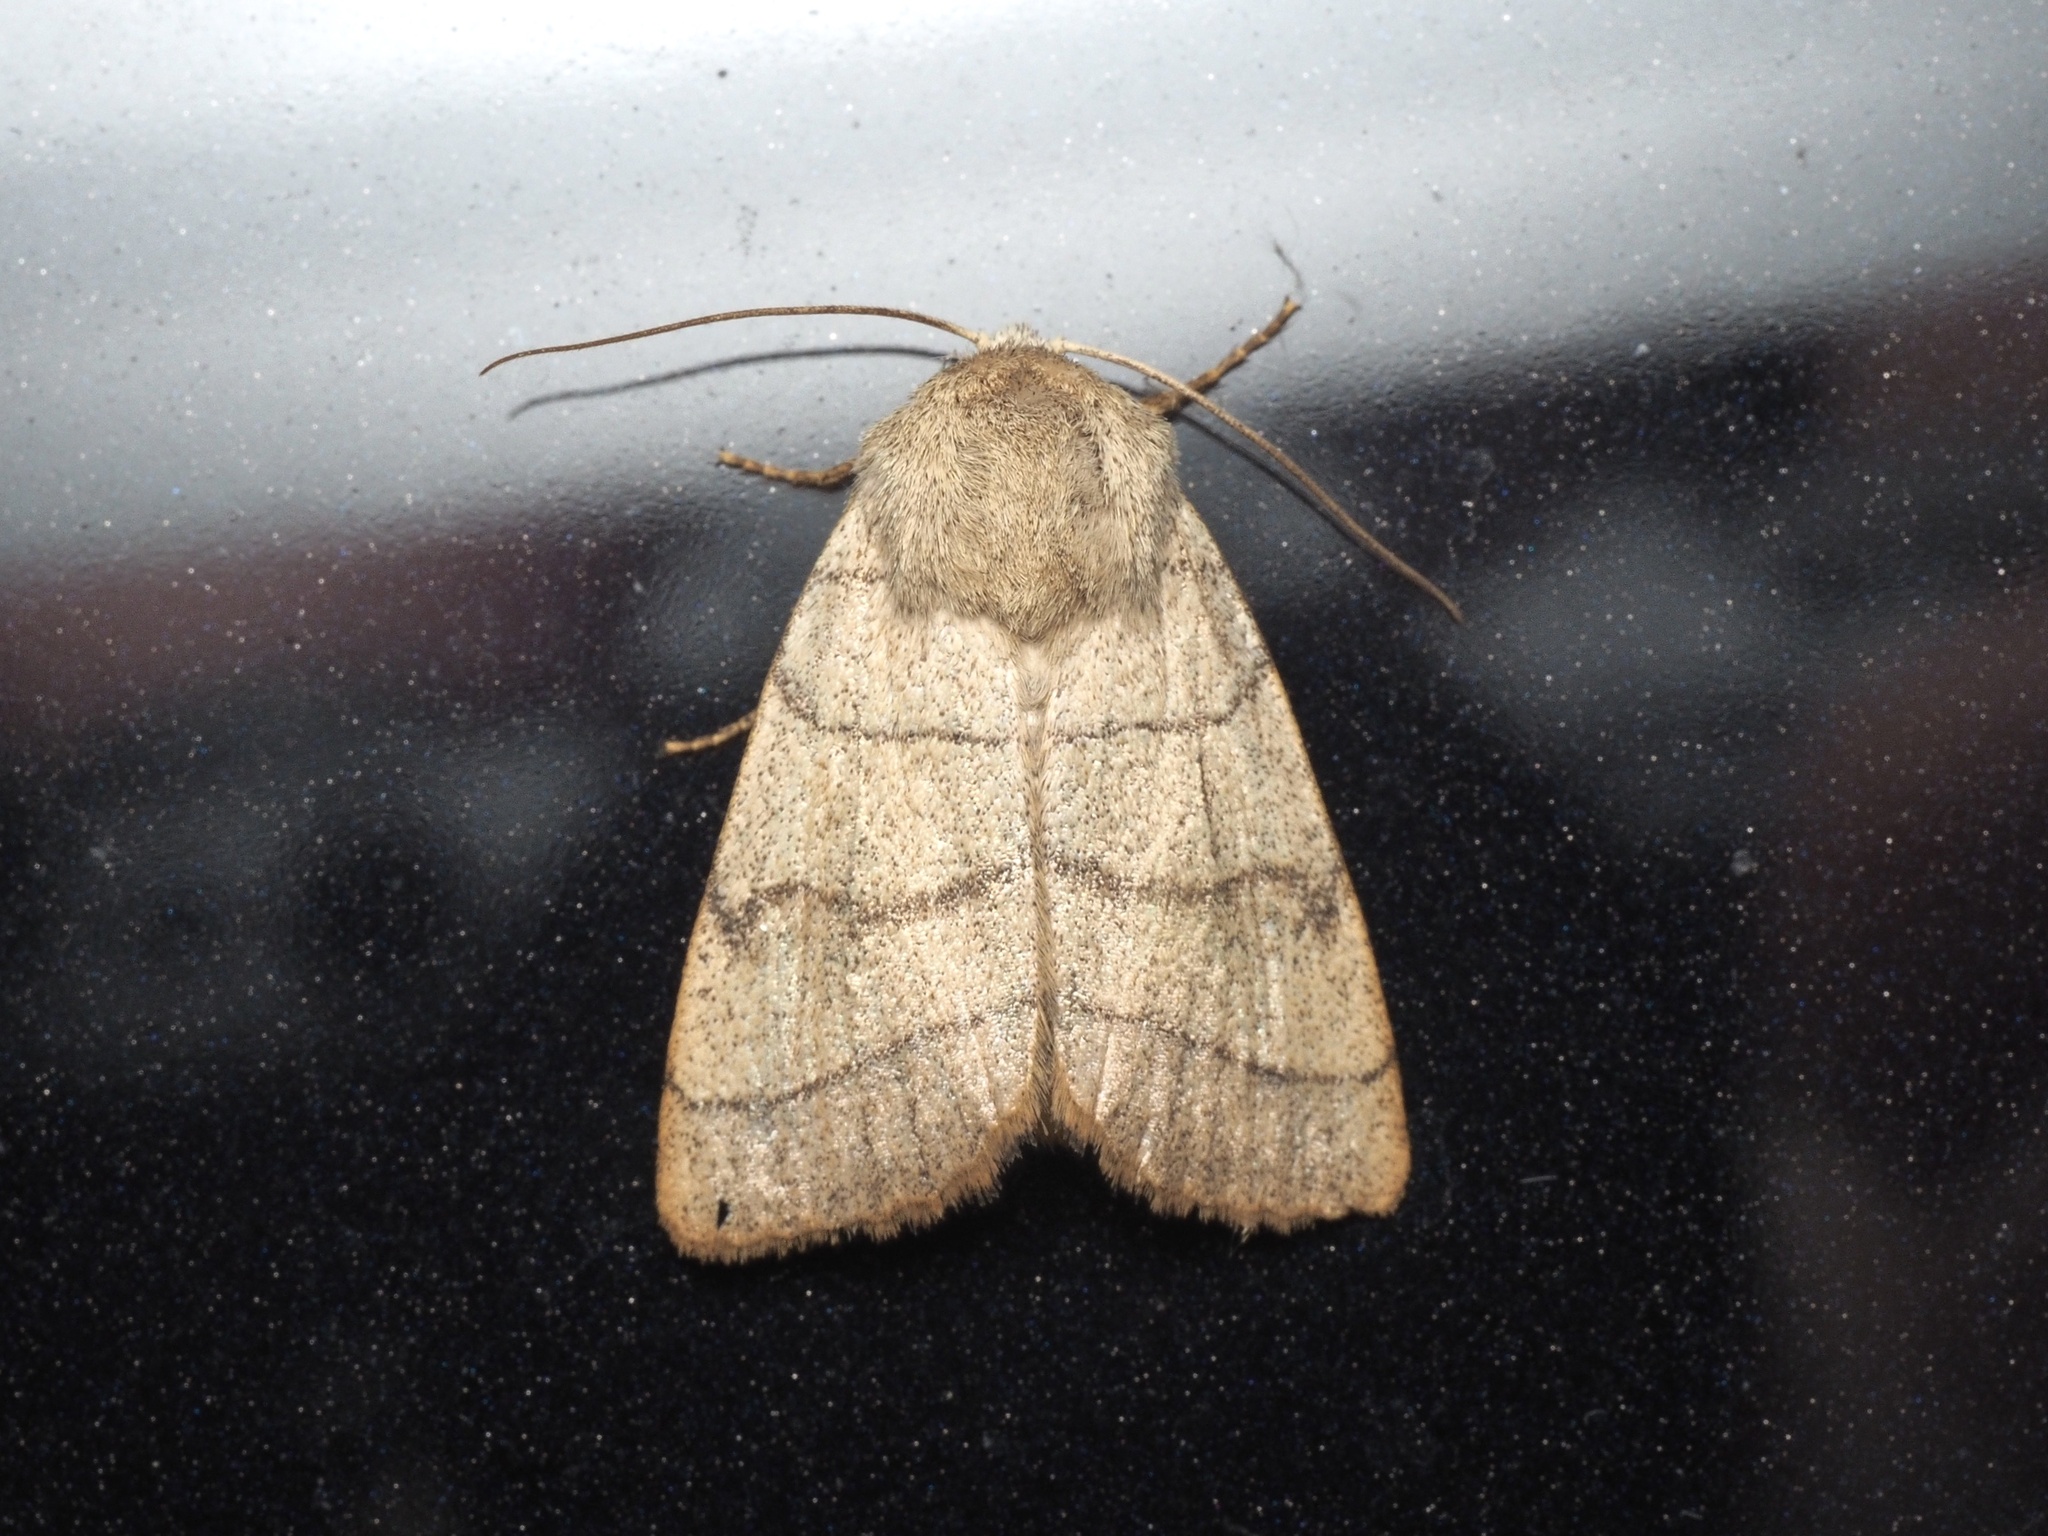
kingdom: Animalia
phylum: Arthropoda
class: Insecta
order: Lepidoptera
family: Noctuidae
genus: Charanyca
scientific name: Charanyca trigrammica
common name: Treble lines
